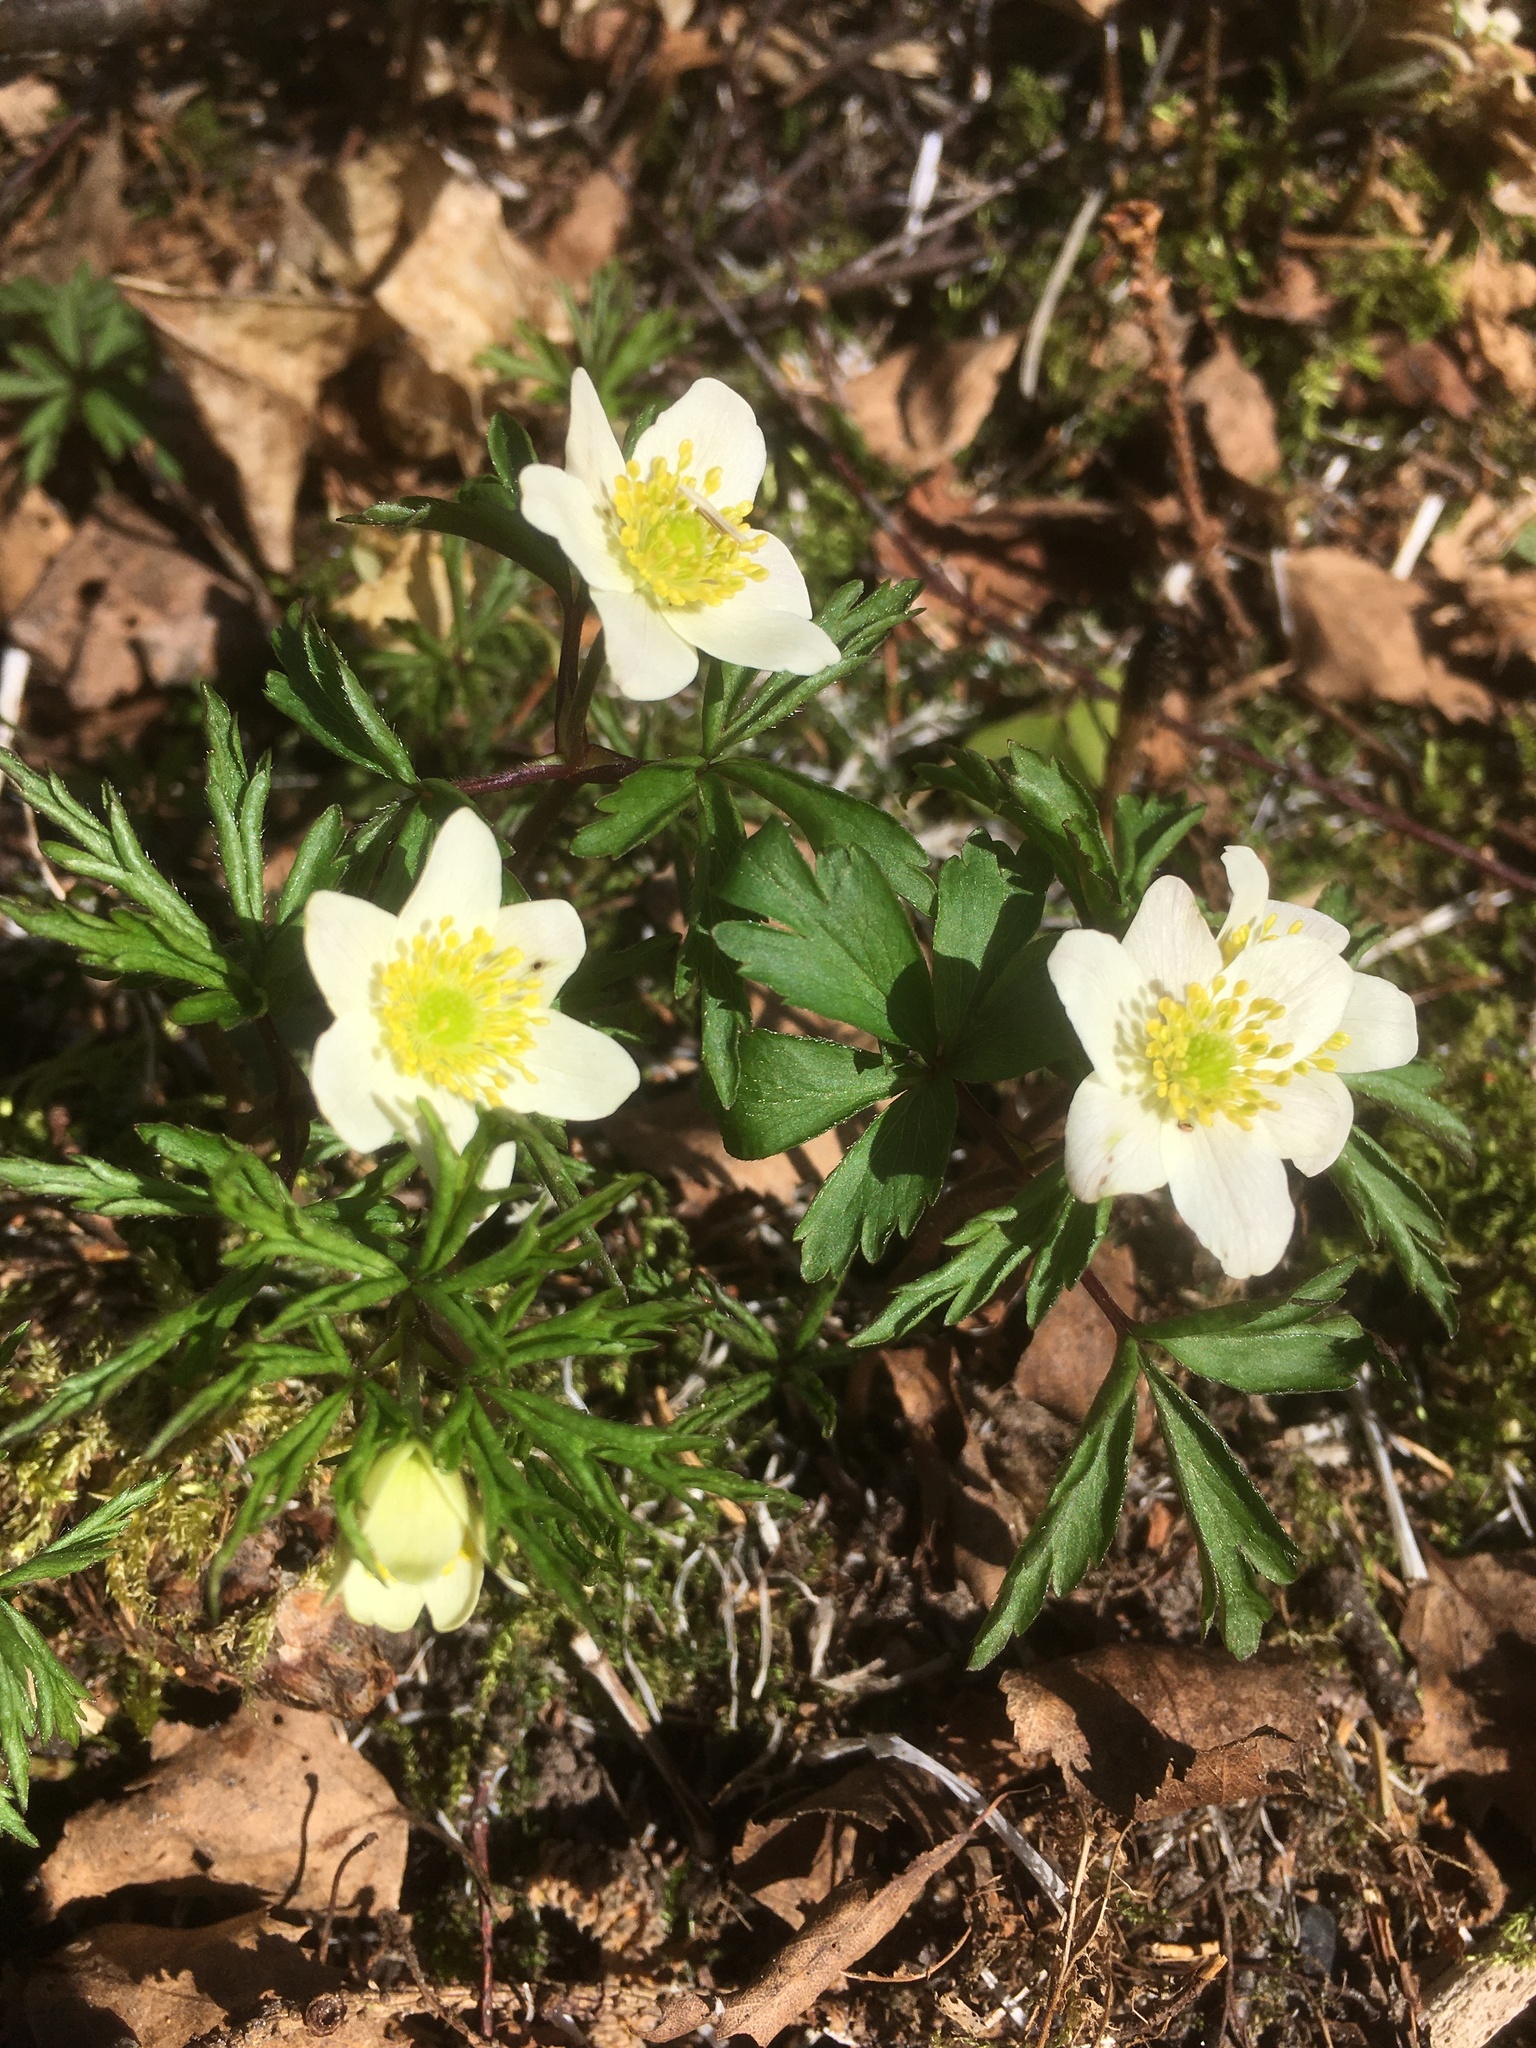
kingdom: Plantae
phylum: Tracheophyta
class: Magnoliopsida
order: Ranunculales
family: Ranunculaceae
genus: Anemone
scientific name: Anemone nemorosa
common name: Wood anemone
